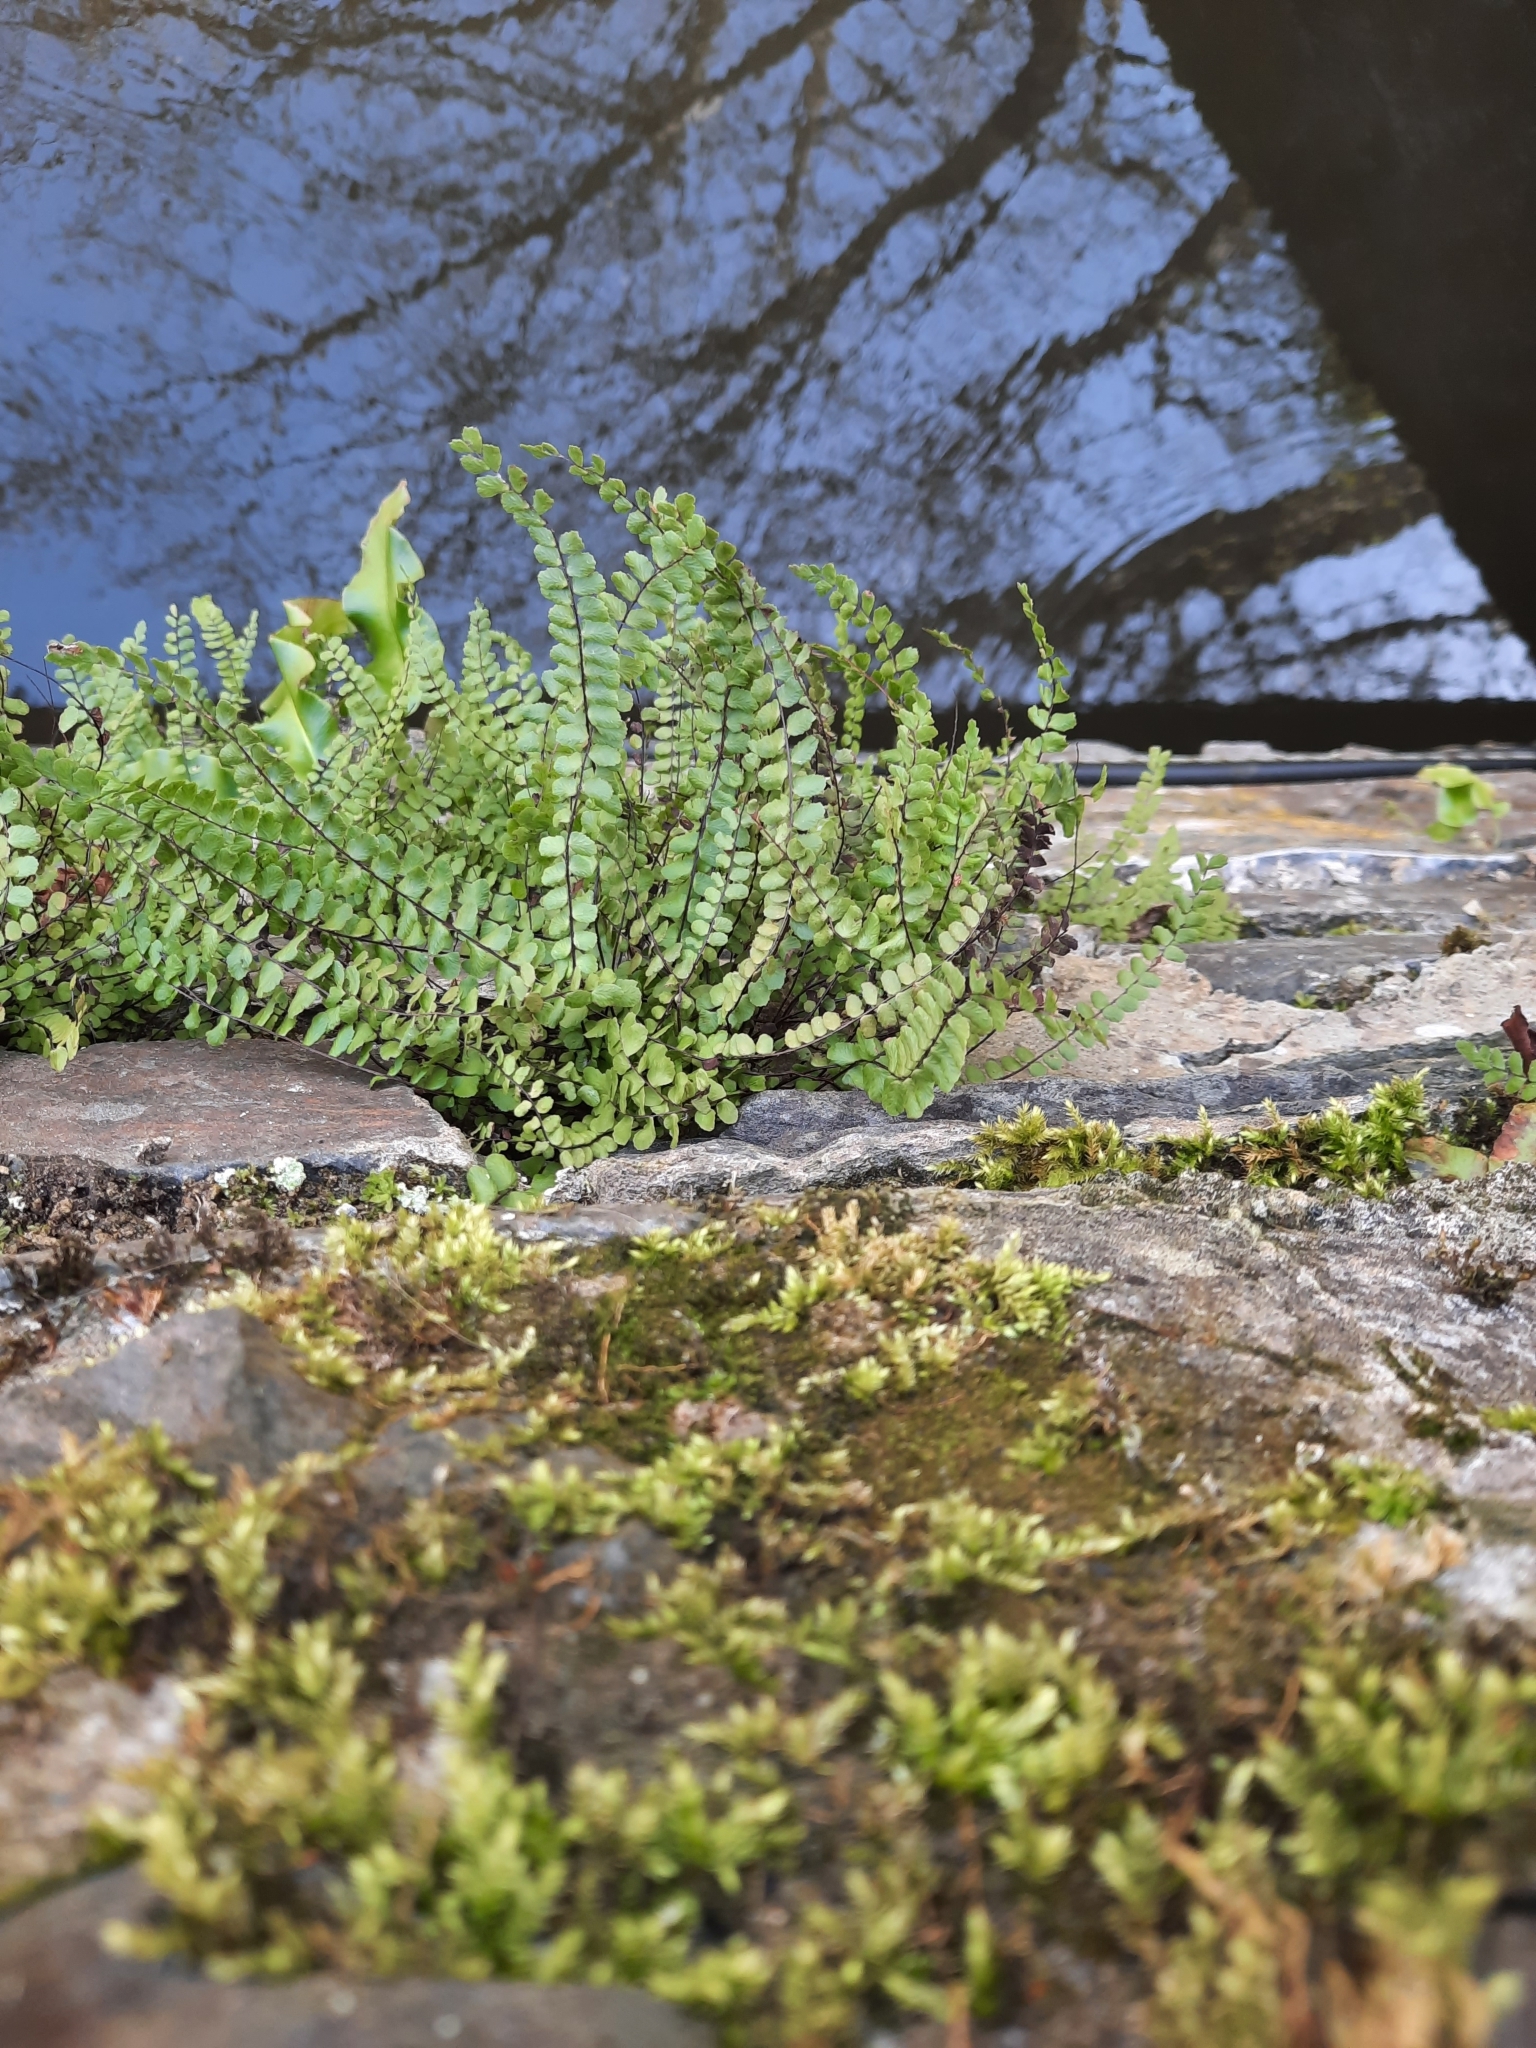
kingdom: Plantae
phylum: Tracheophyta
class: Polypodiopsida
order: Polypodiales
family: Aspleniaceae
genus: Asplenium
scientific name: Asplenium trichomanes
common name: Maidenhair spleenwort
